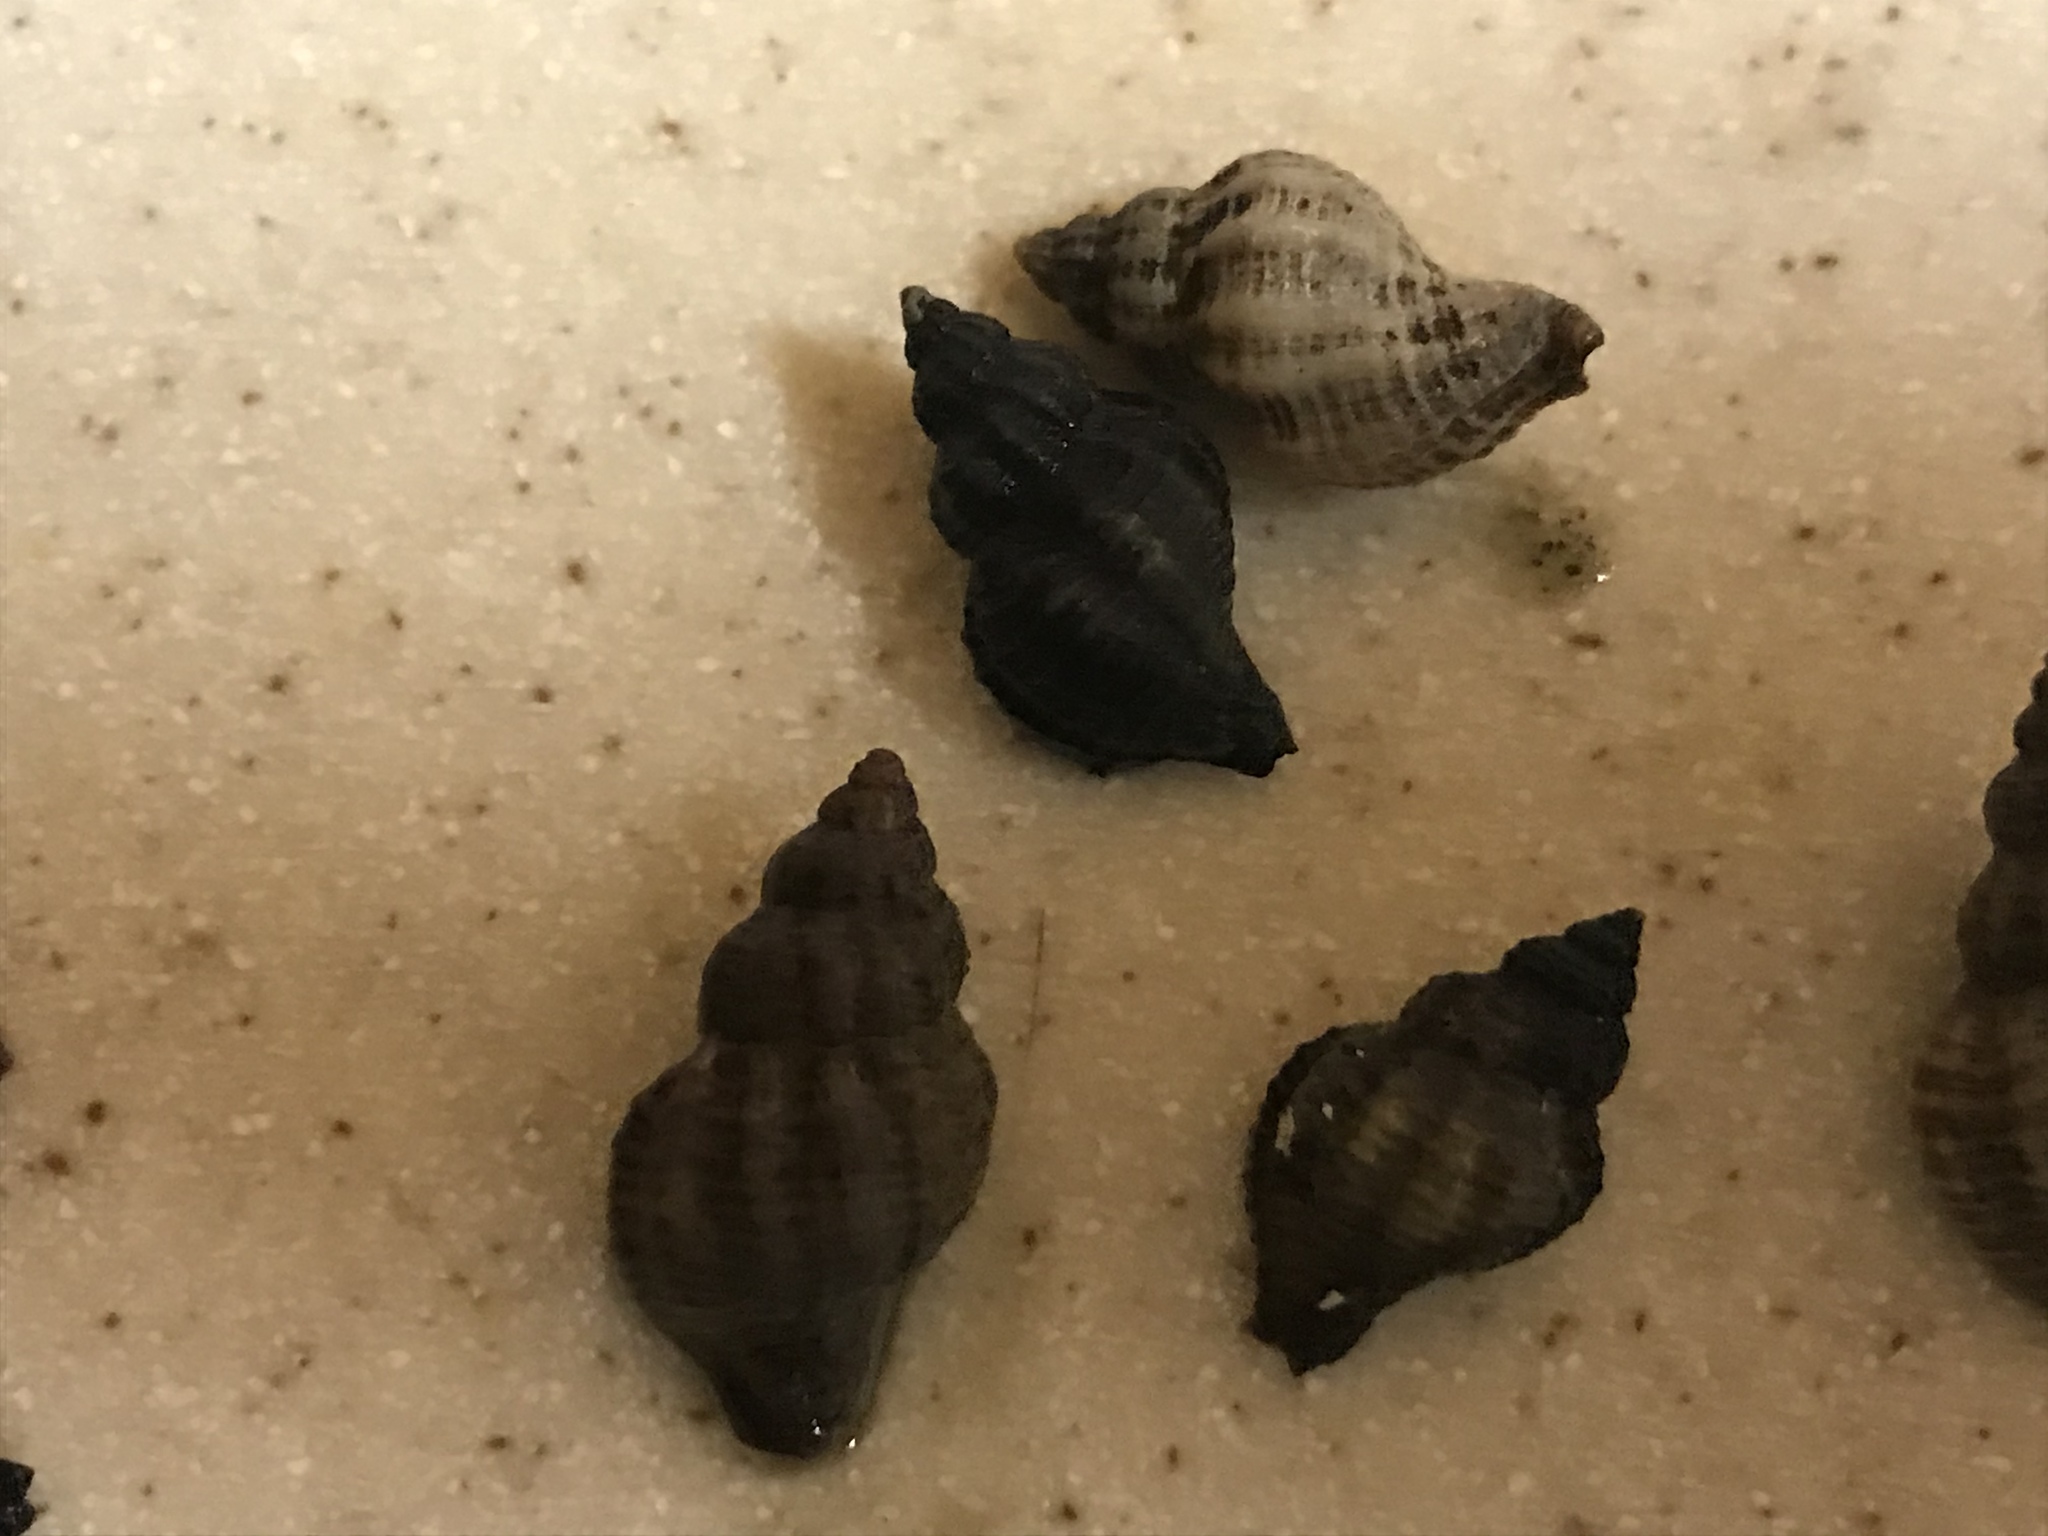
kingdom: Animalia
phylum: Mollusca
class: Gastropoda
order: Neogastropoda
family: Muricidae
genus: Urosalpinx
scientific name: Urosalpinx cinerea
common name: American sting winkle
